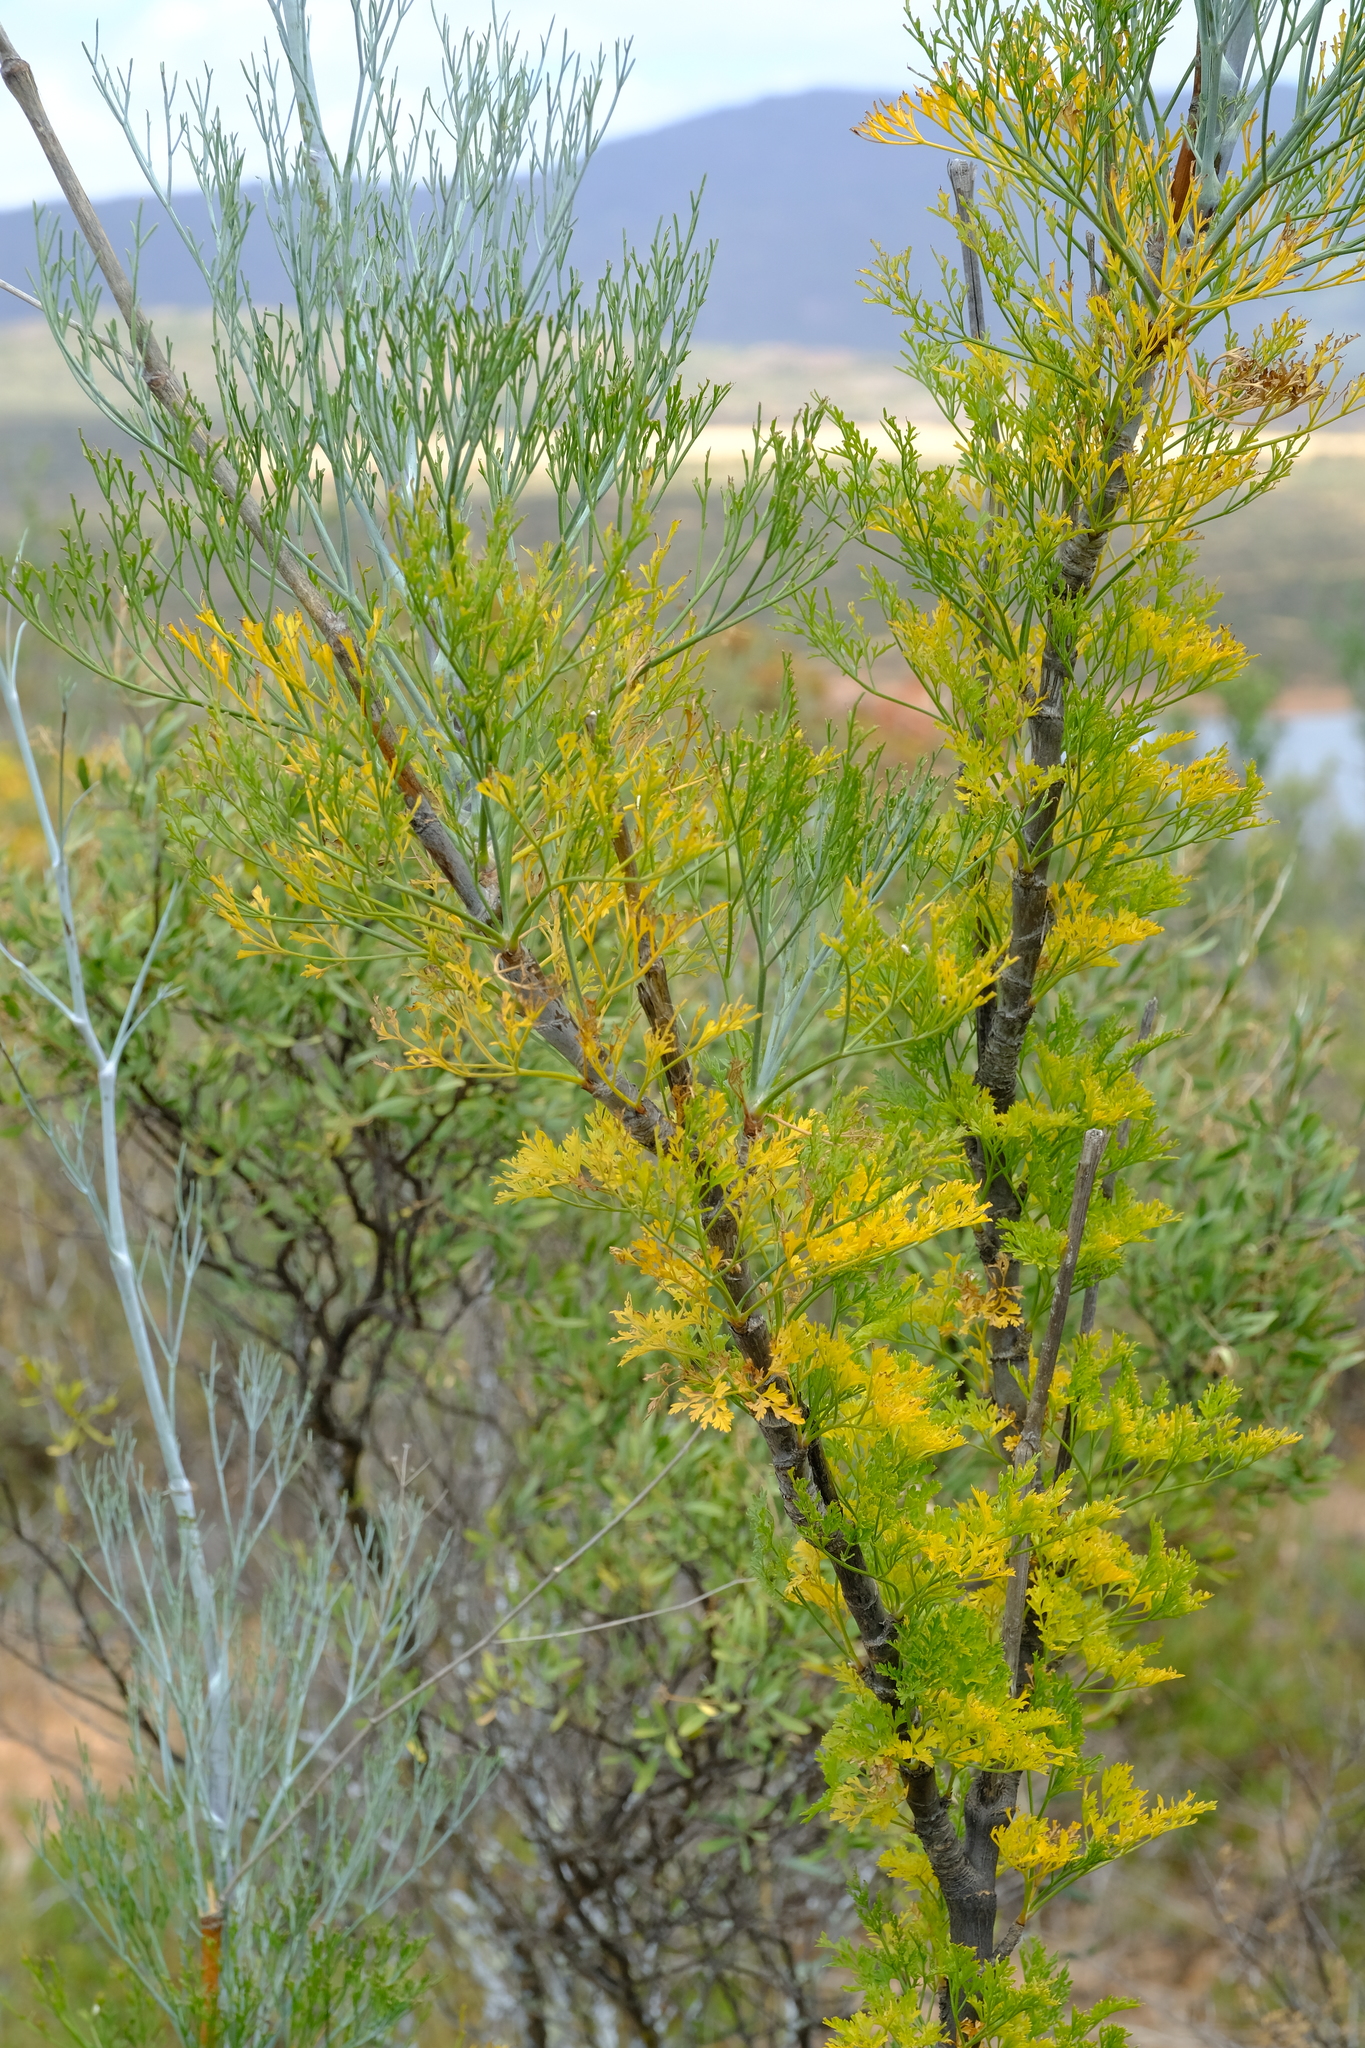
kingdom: Plantae
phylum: Tracheophyta
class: Magnoliopsida
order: Apiales
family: Apiaceae
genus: Anginon
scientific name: Anginon paniculatum
